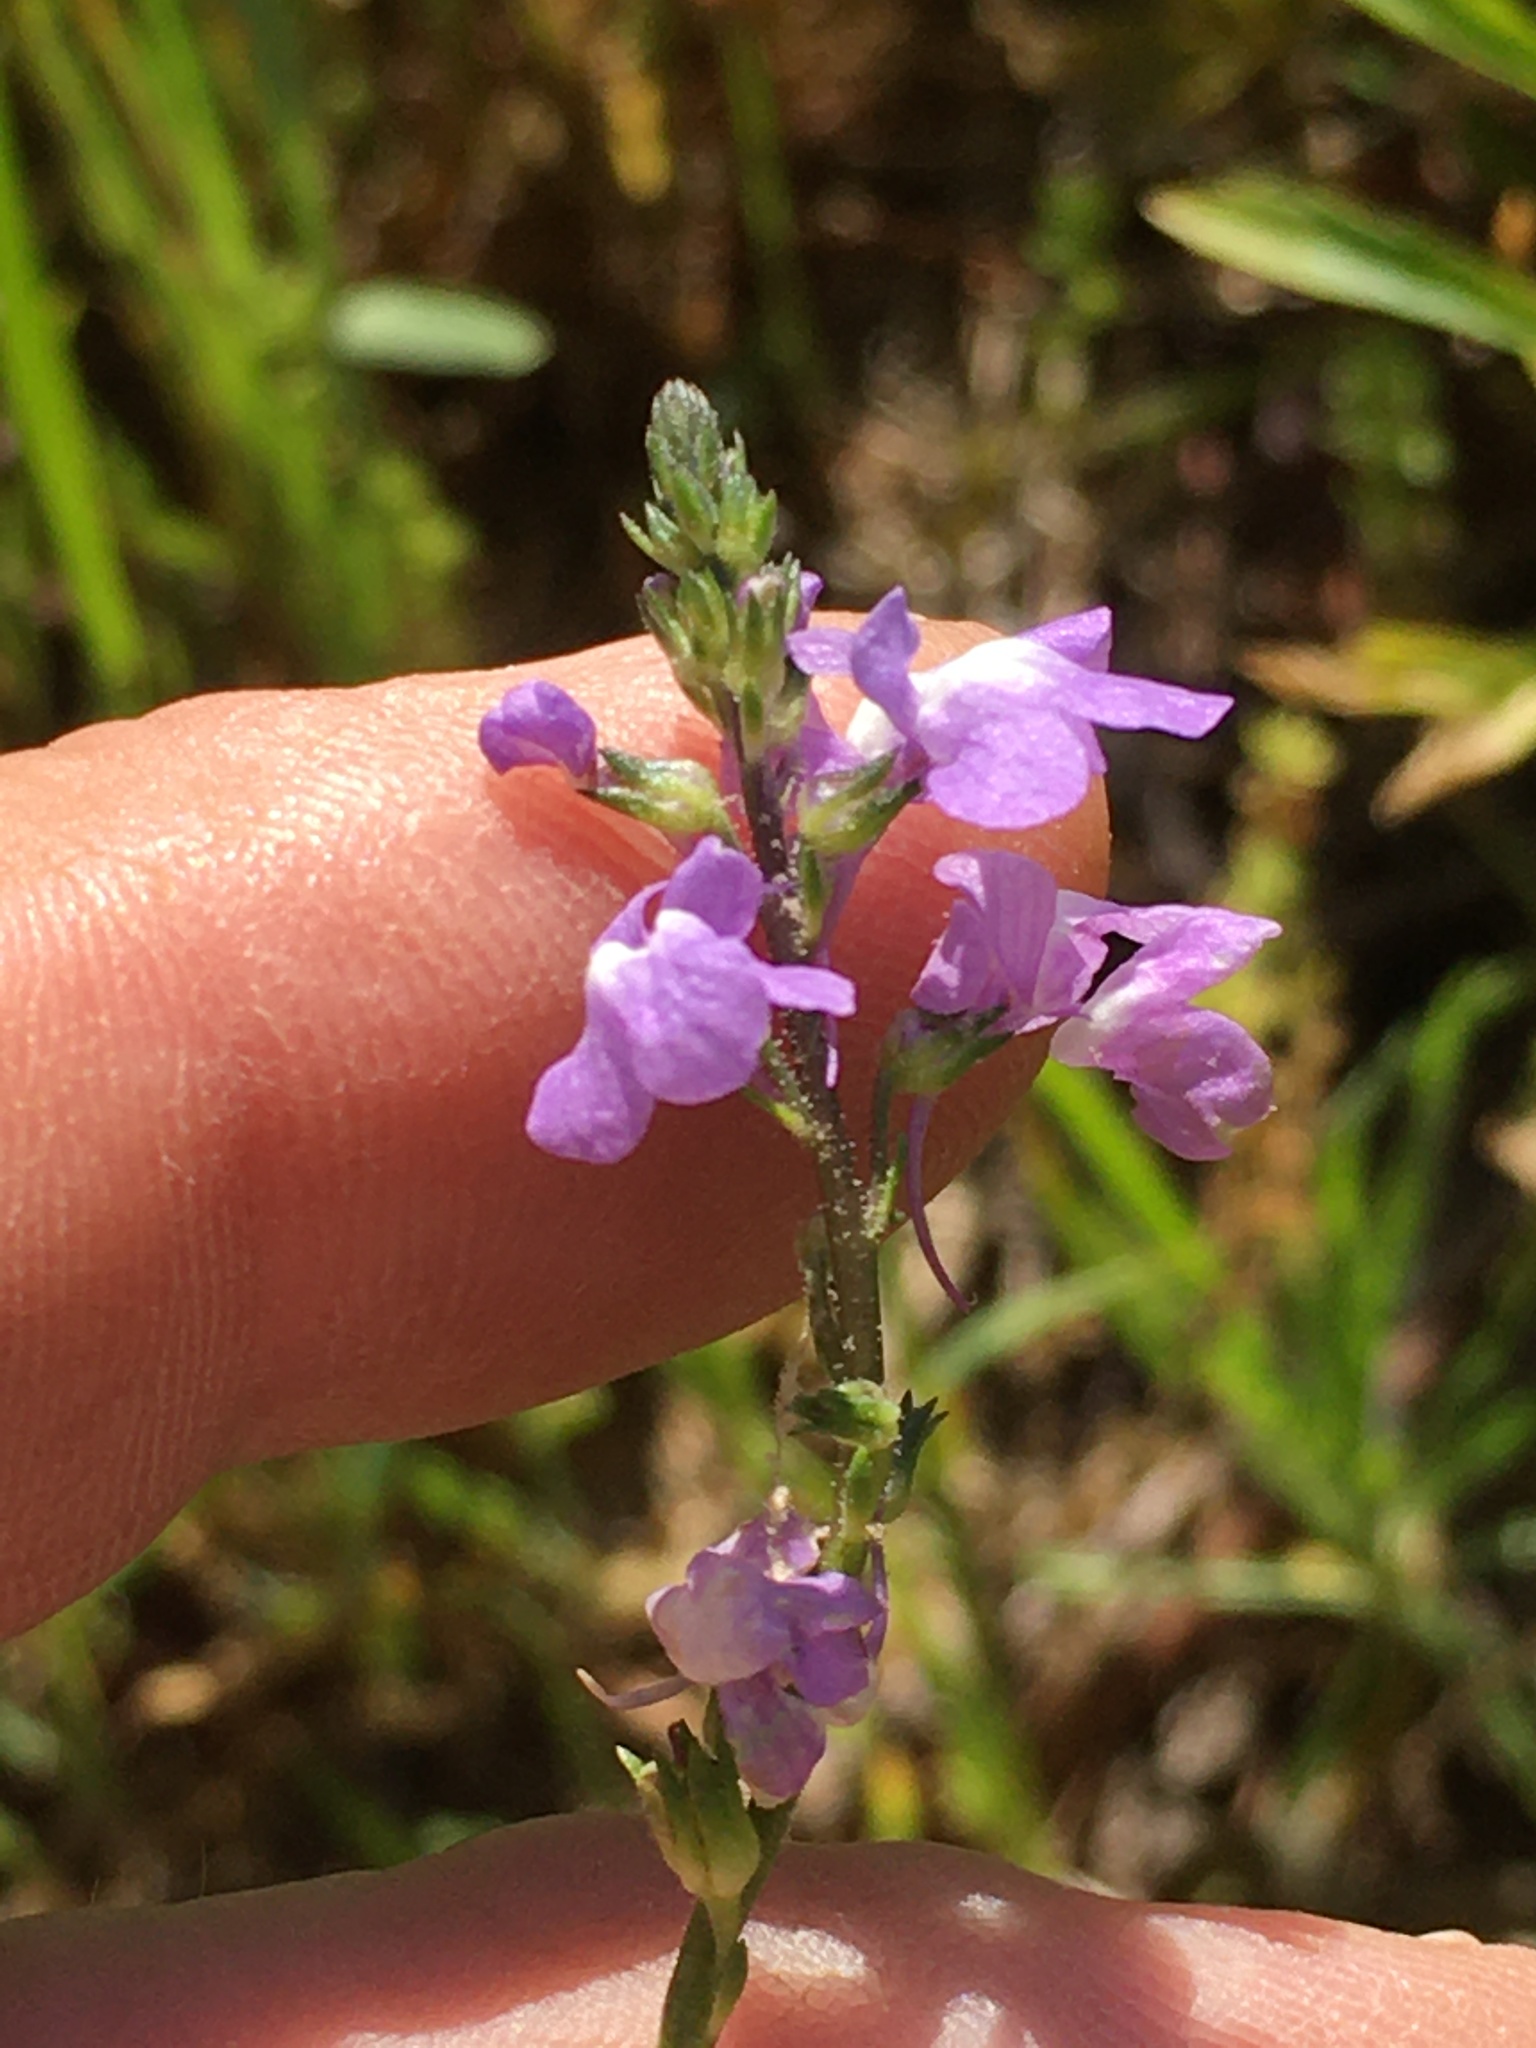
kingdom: Plantae
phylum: Tracheophyta
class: Magnoliopsida
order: Lamiales
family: Plantaginaceae
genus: Nuttallanthus
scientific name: Nuttallanthus canadensis
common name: Blue toadflax
